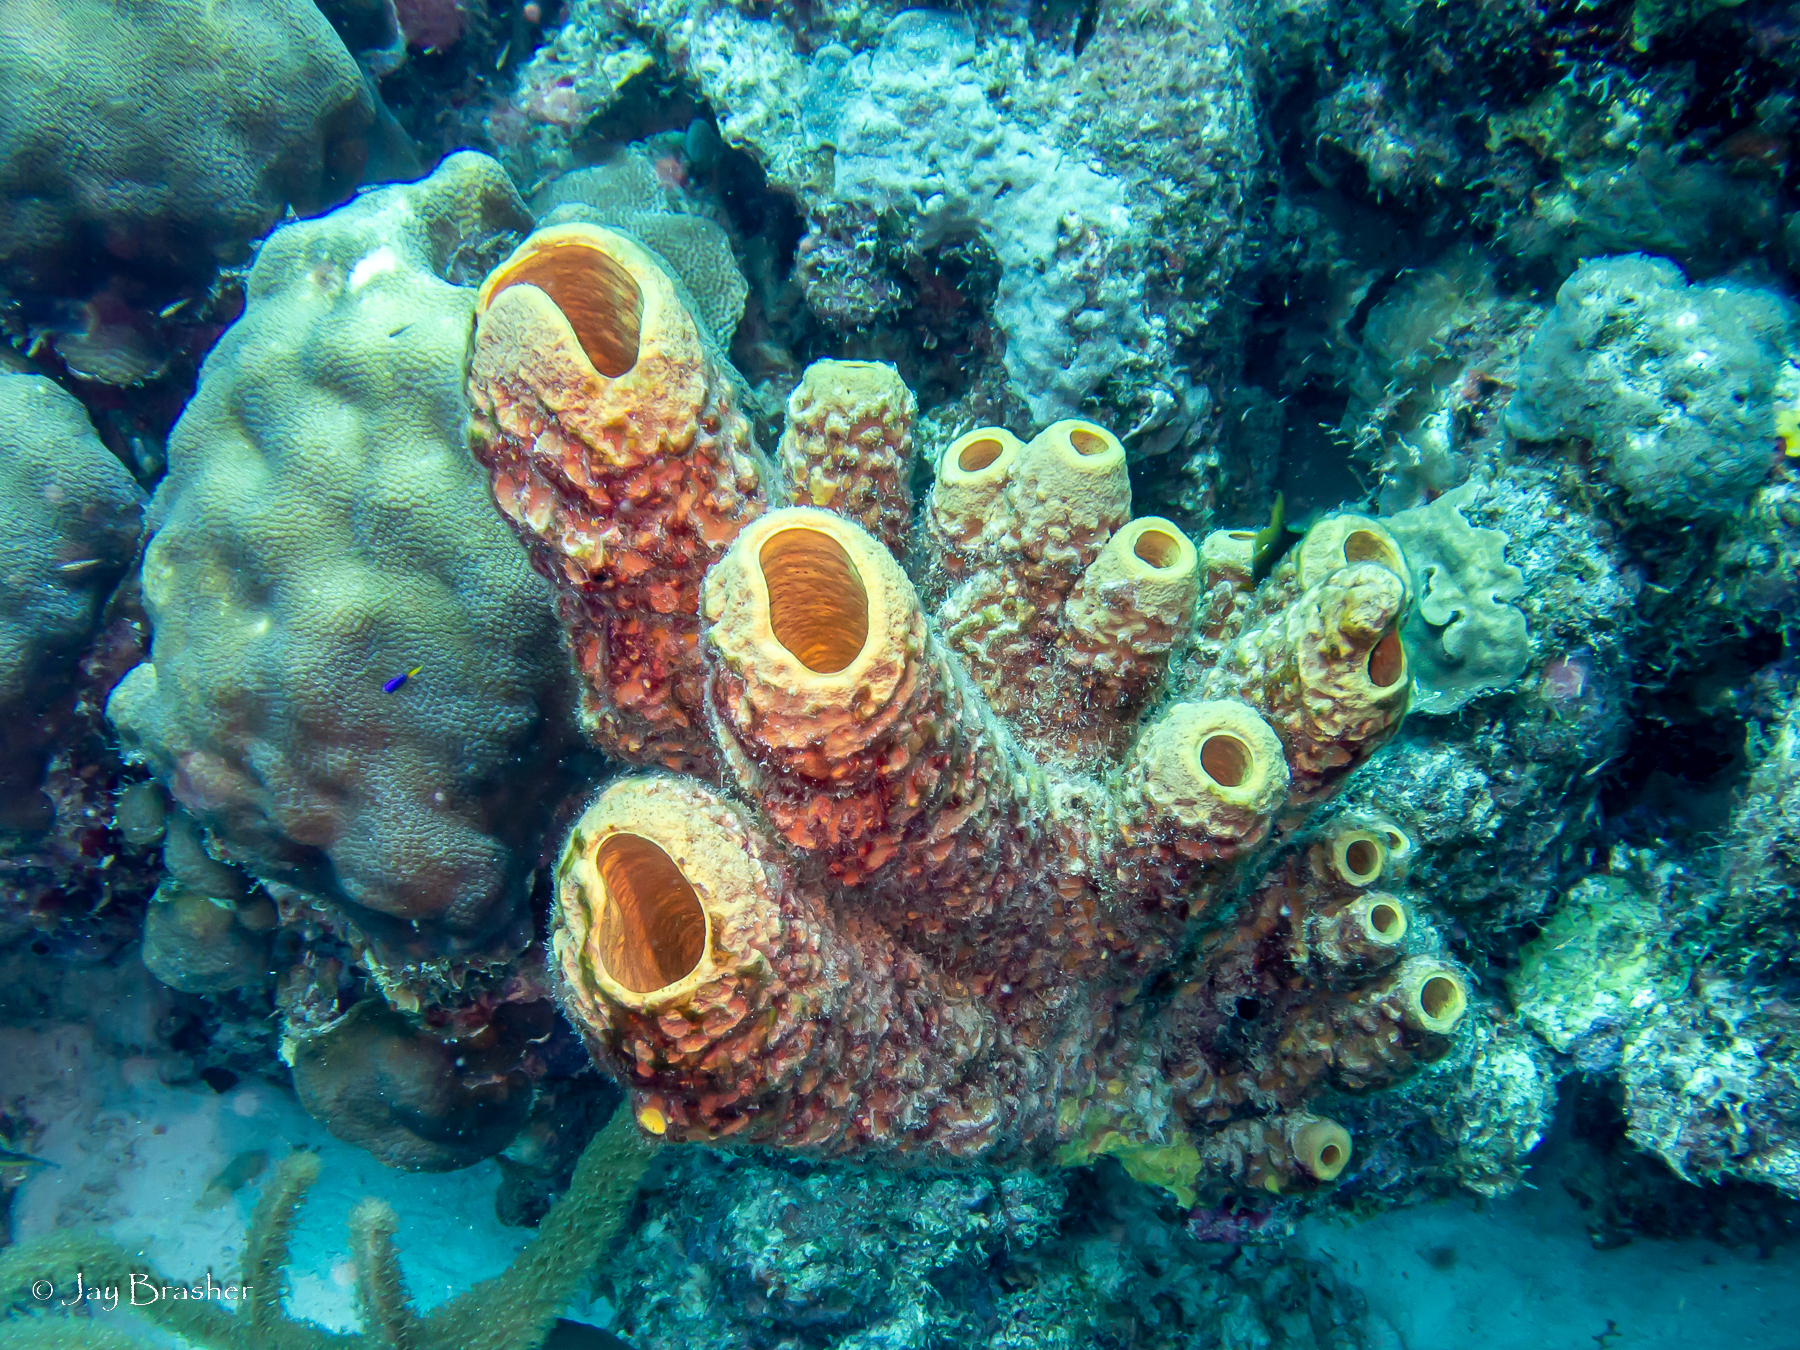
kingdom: Animalia
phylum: Porifera
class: Demospongiae
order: Verongiida
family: Aplysinidae
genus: Aplysina
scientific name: Aplysina archeri
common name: Stove-pipe sponge
